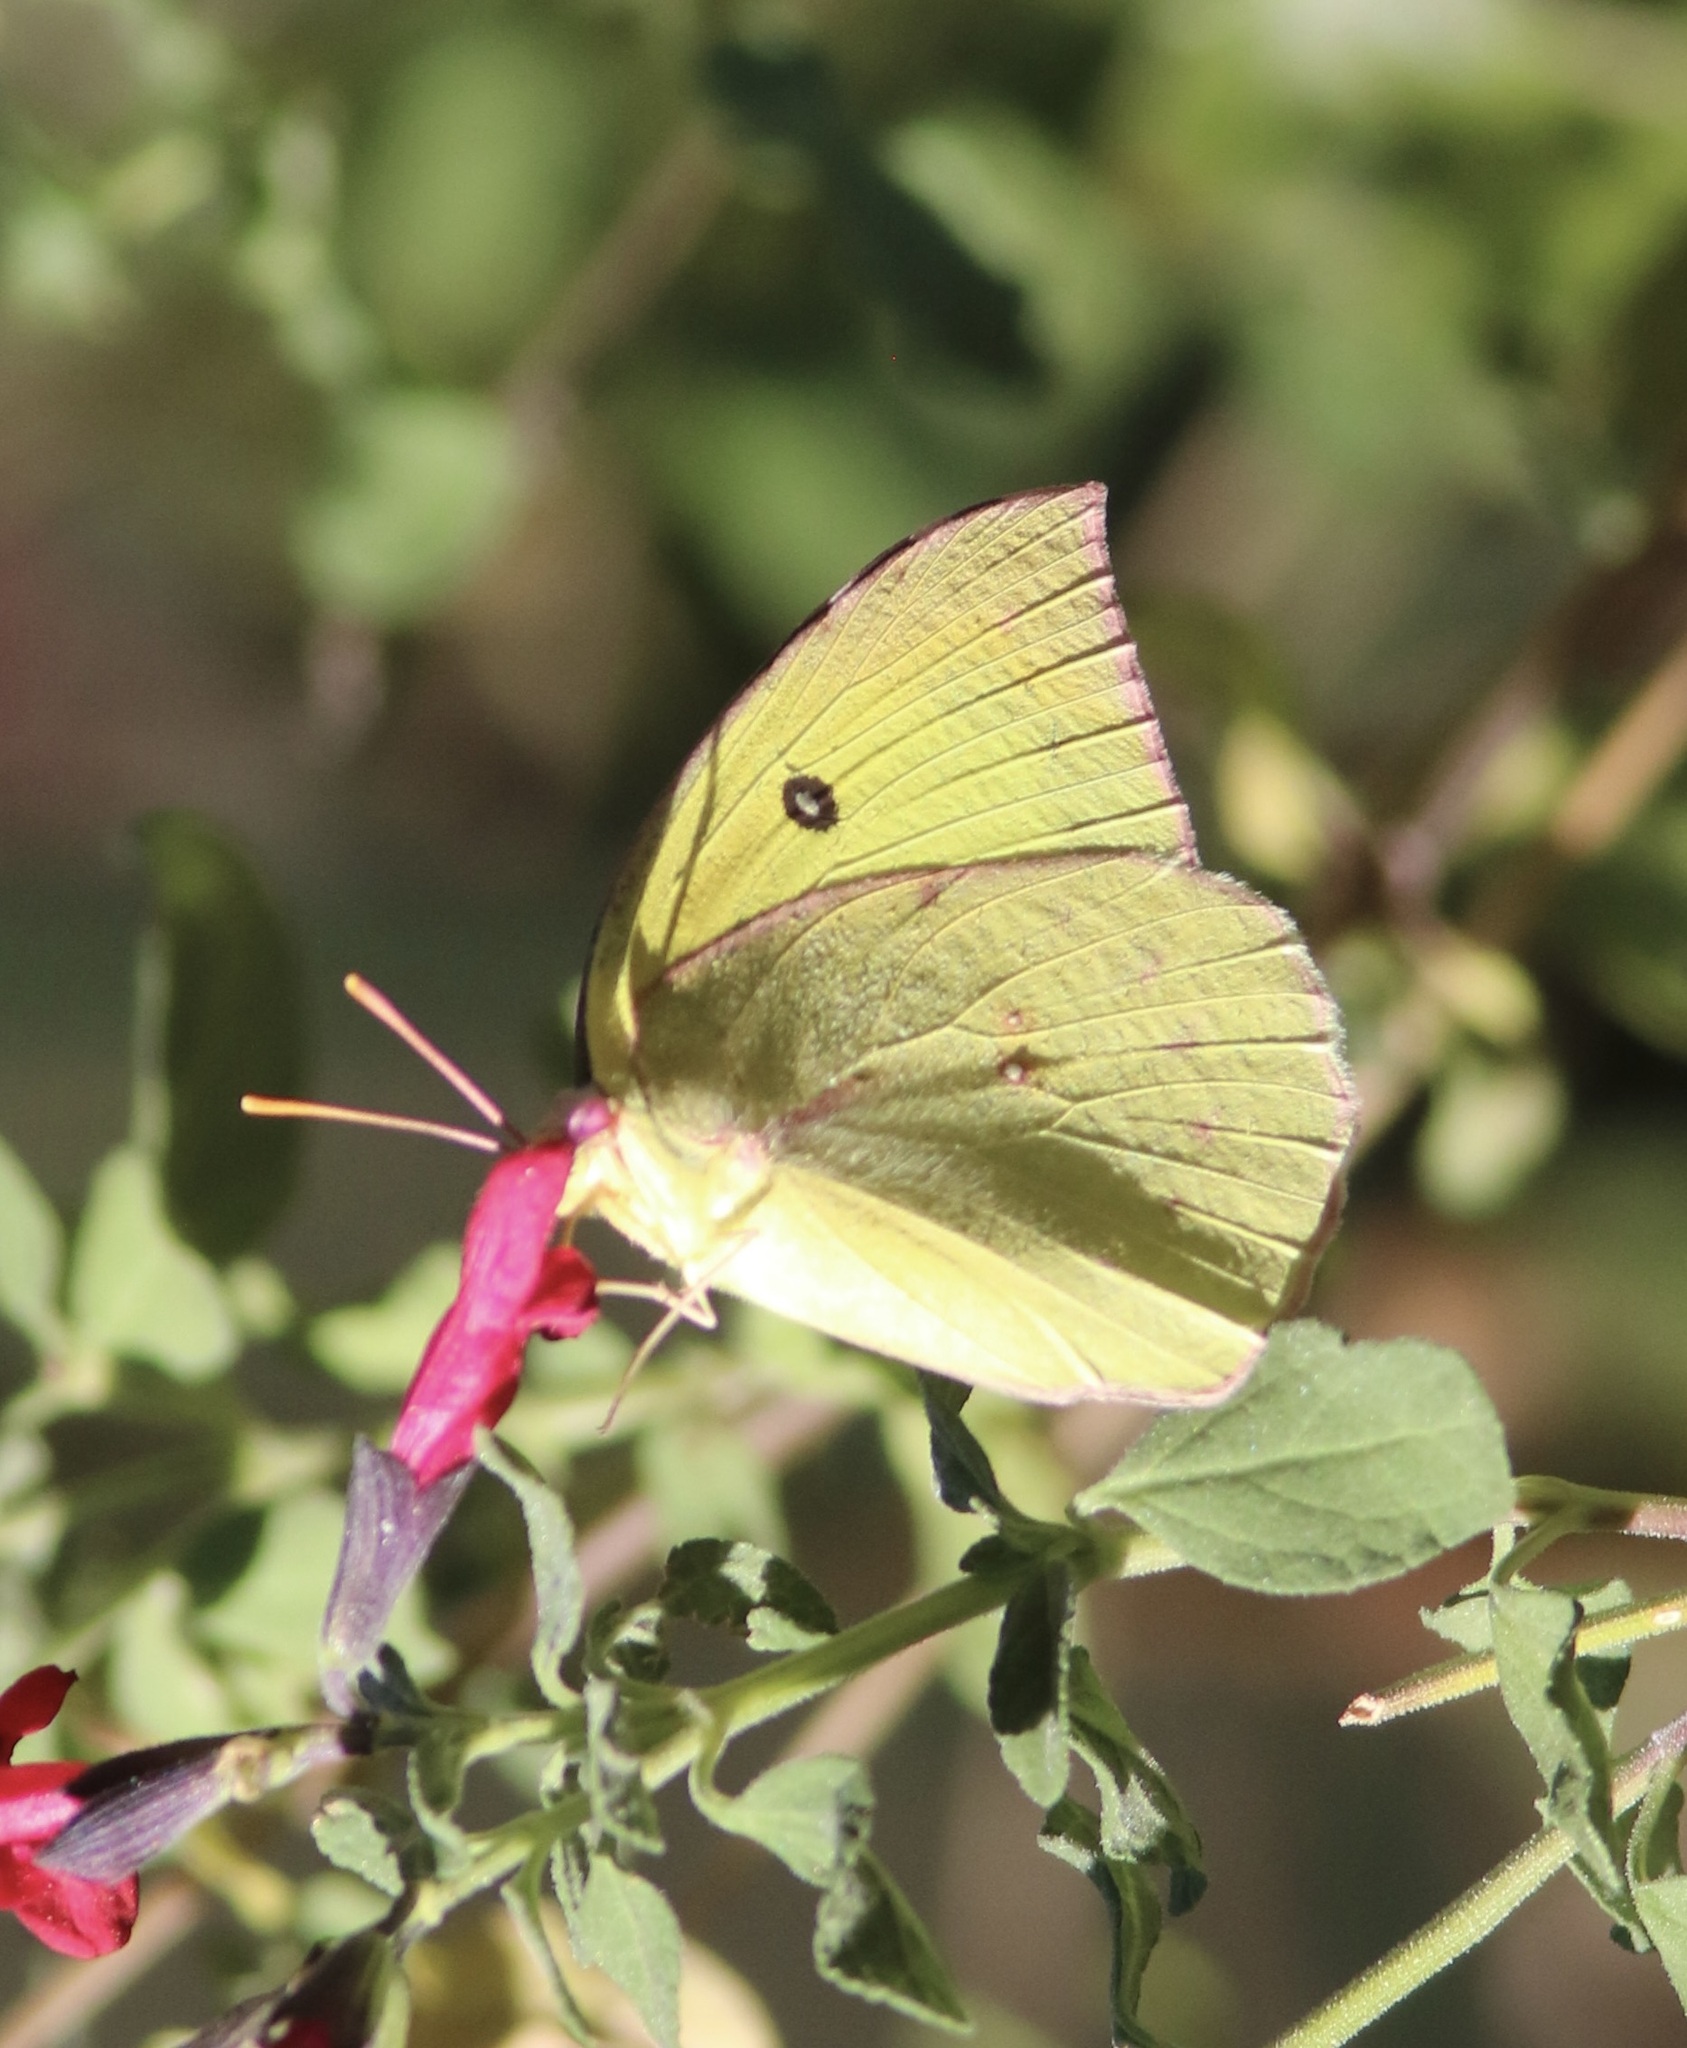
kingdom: Animalia
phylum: Arthropoda
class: Insecta
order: Lepidoptera
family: Pieridae
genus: Zerene
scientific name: Zerene cesonia
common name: Southern dogface
